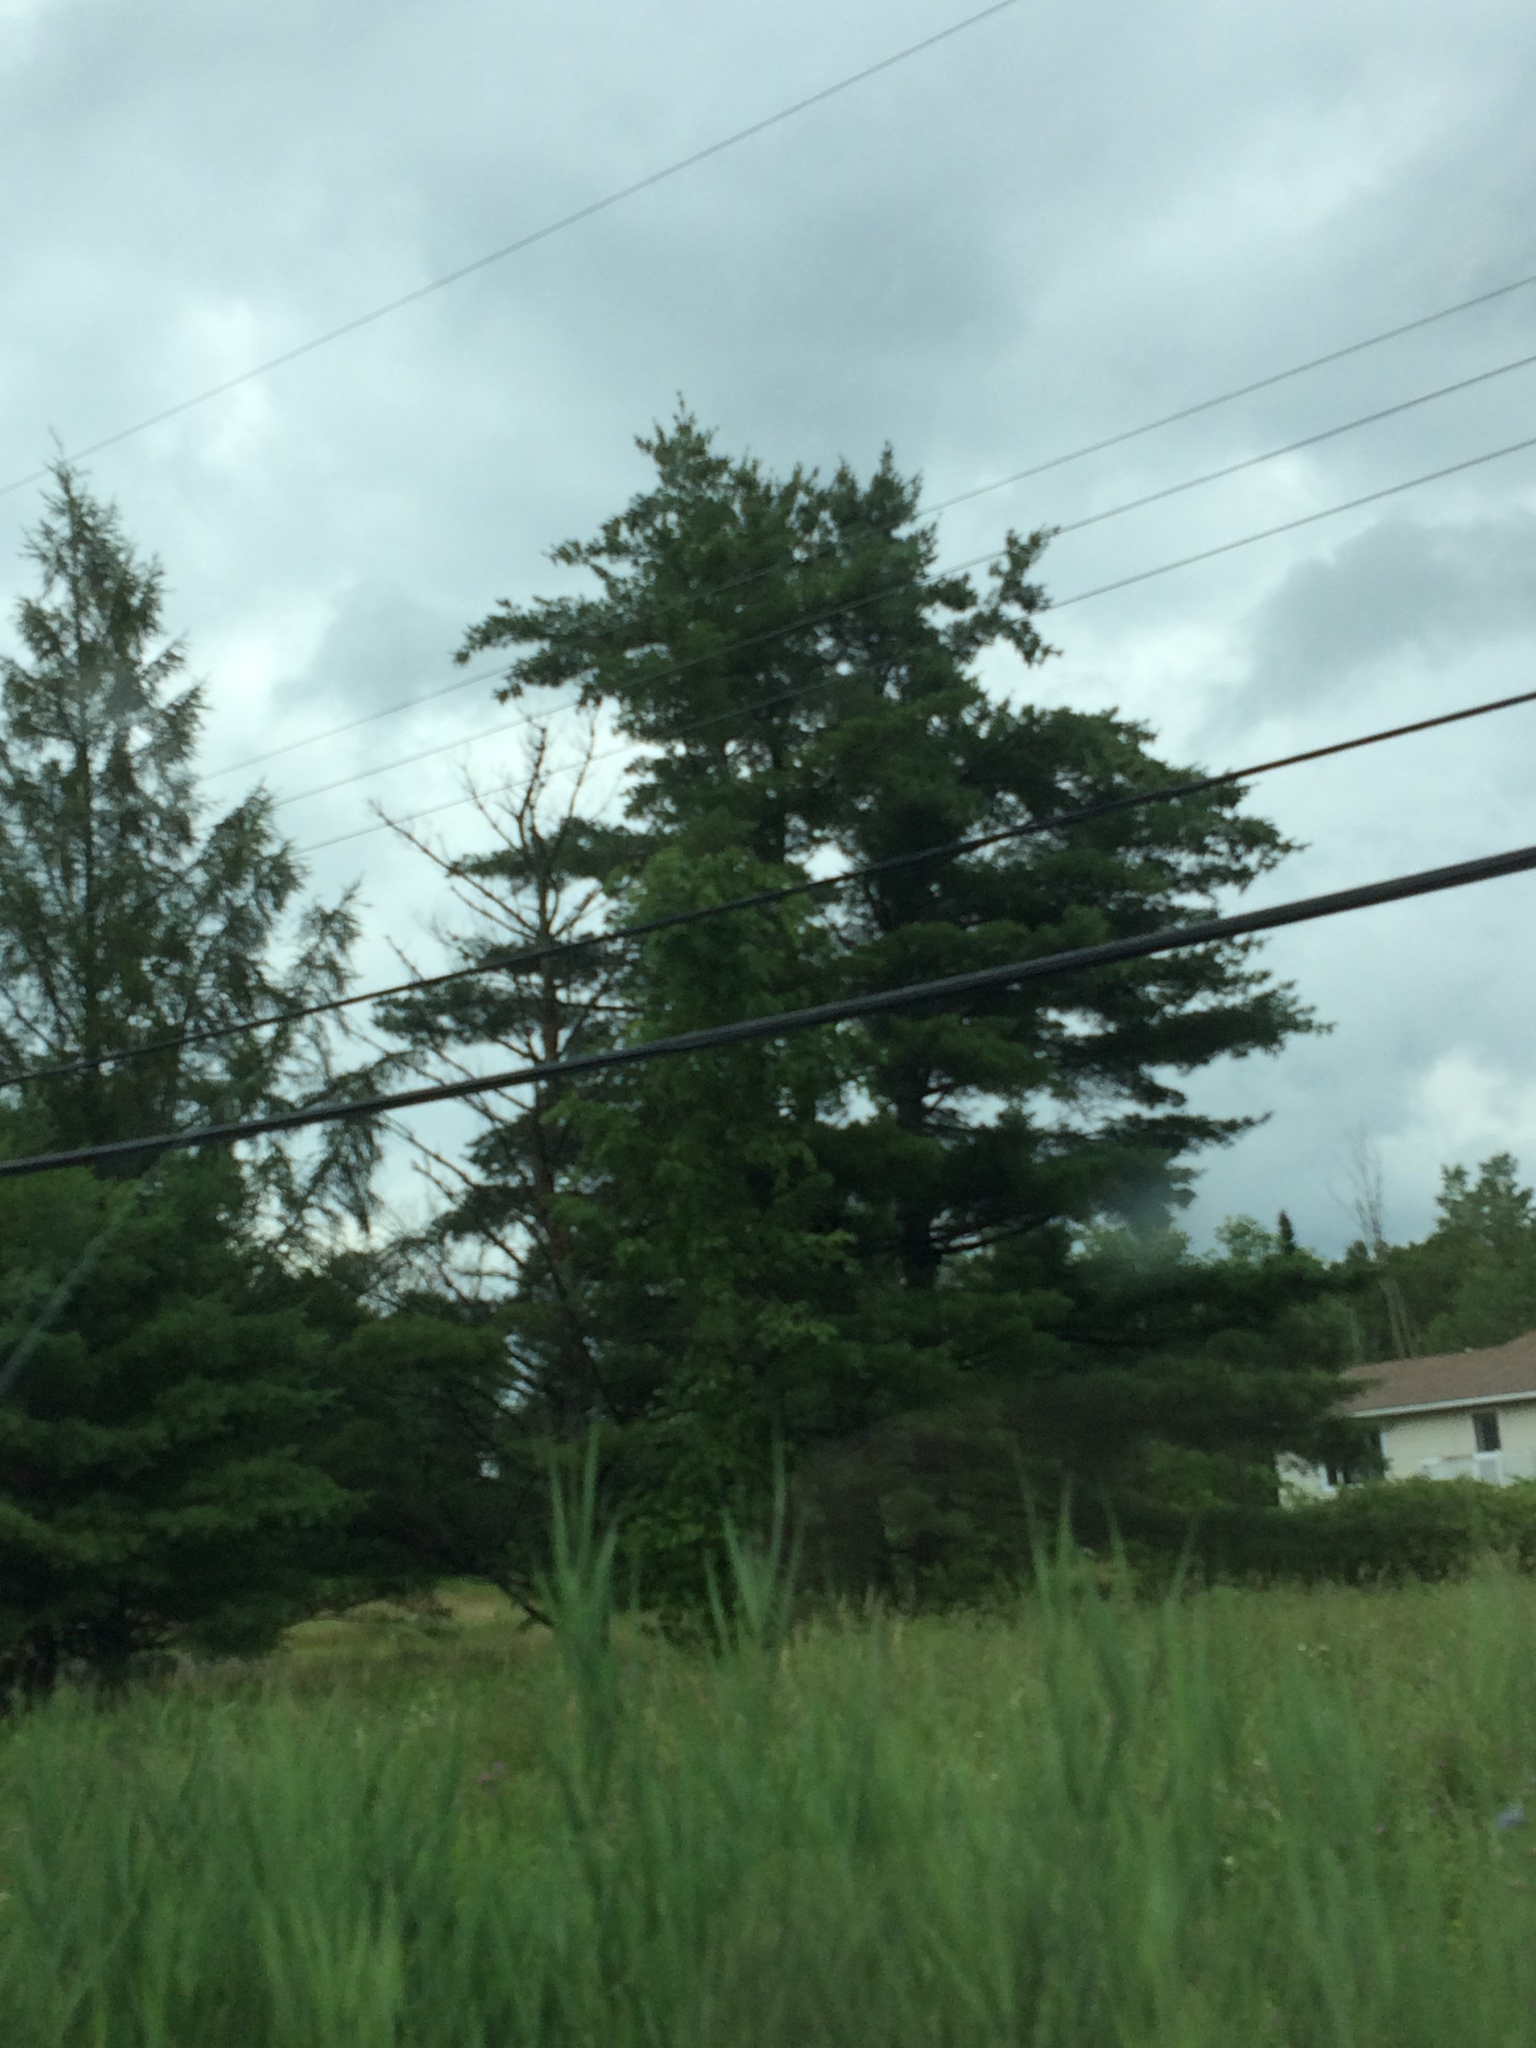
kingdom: Plantae
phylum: Tracheophyta
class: Pinopsida
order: Pinales
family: Pinaceae
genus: Pinus
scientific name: Pinus strobus
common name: Weymouth pine
